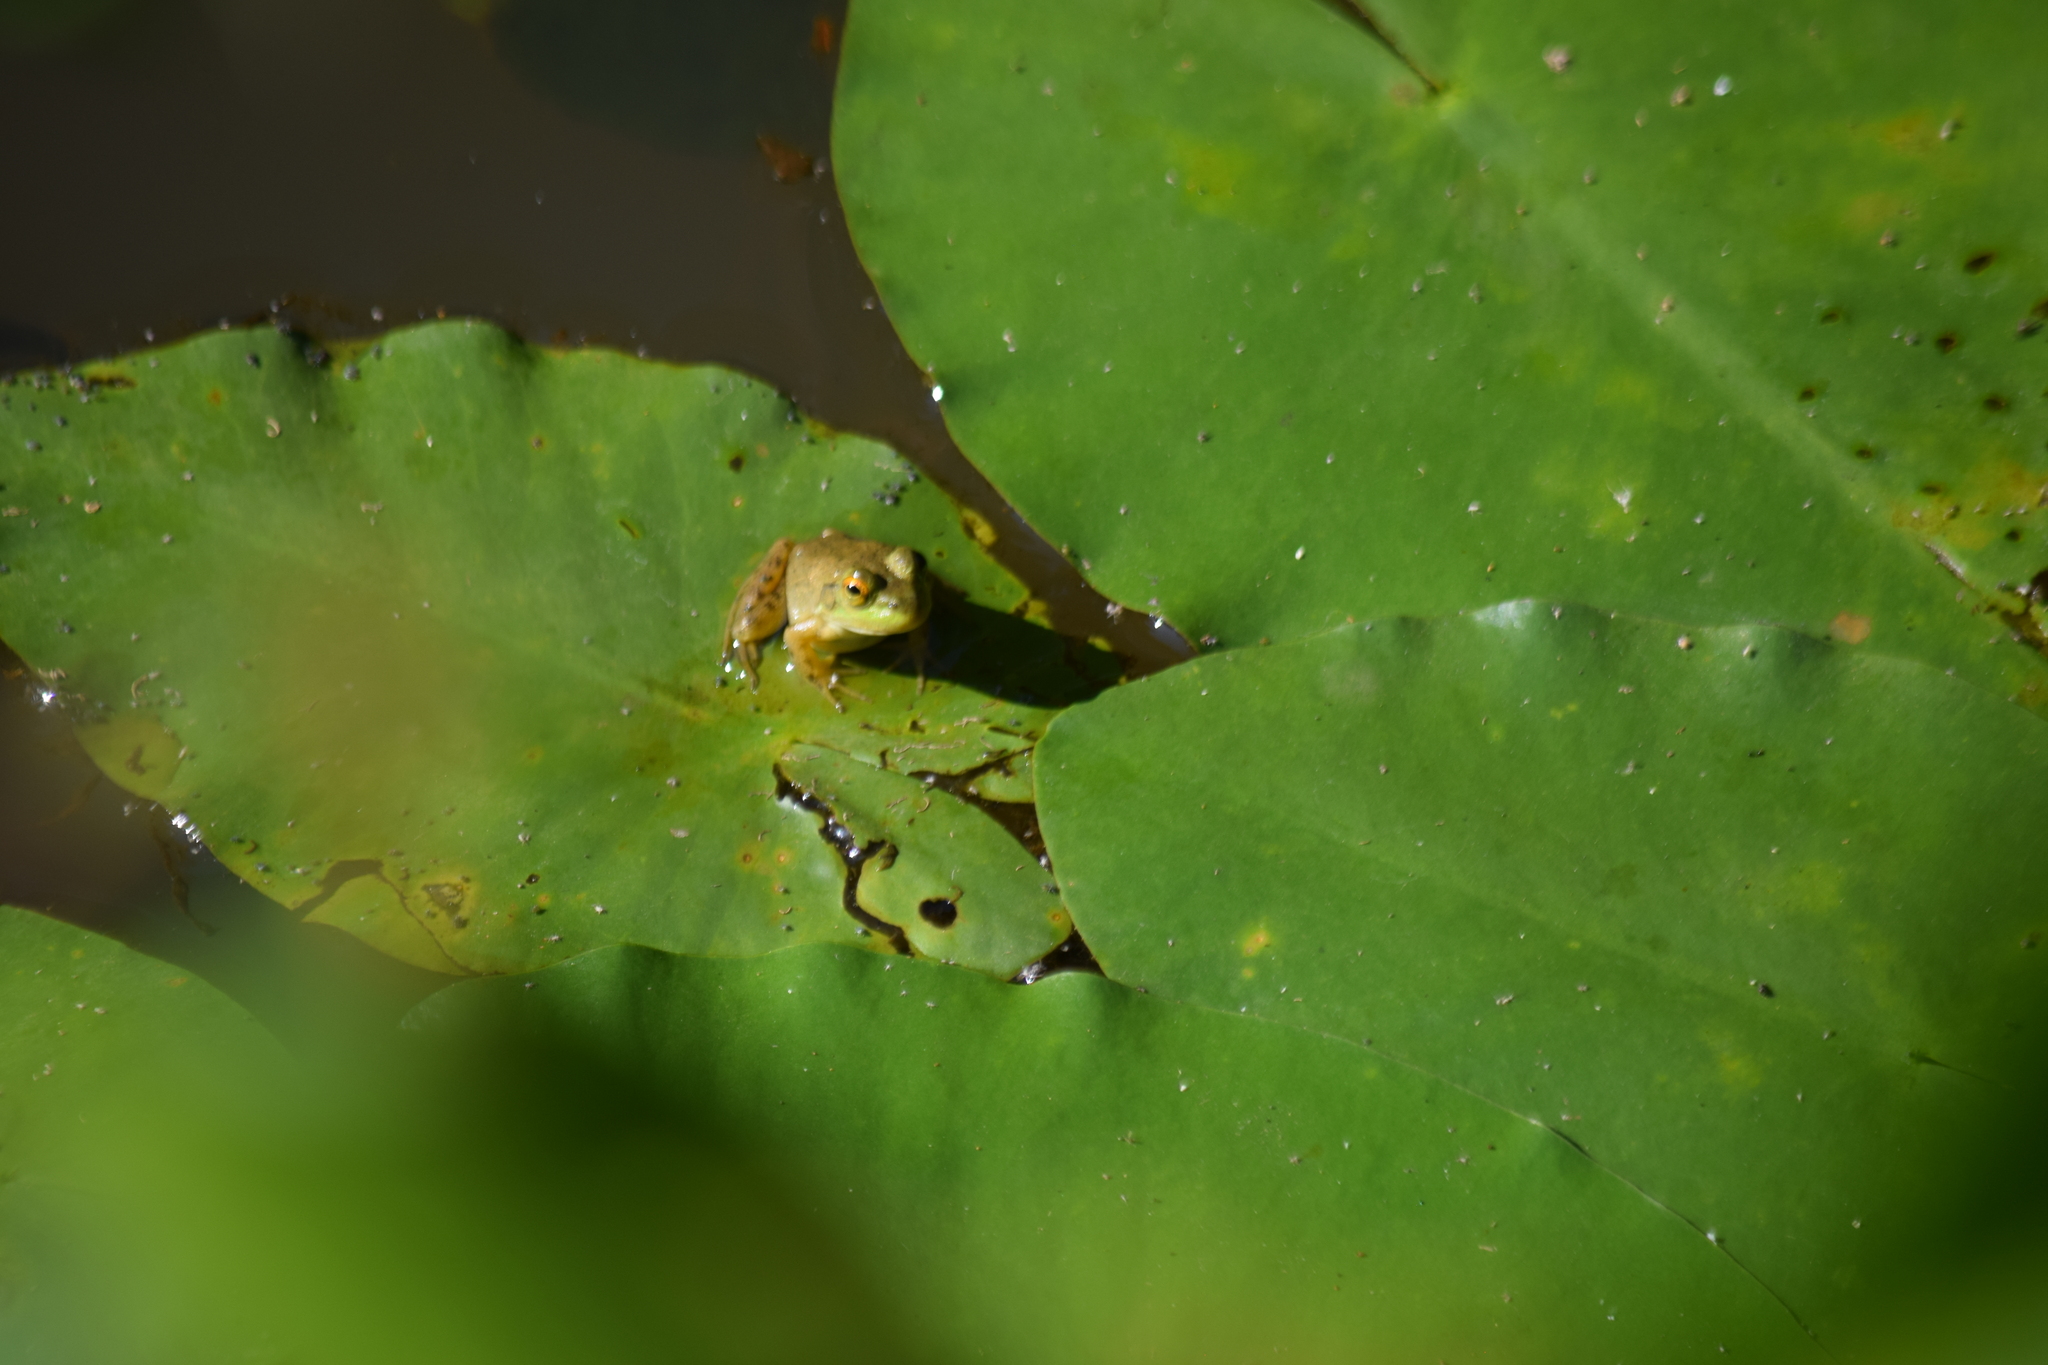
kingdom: Animalia
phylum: Chordata
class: Amphibia
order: Anura
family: Ranidae
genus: Lithobates
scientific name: Lithobates catesbeianus
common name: American bullfrog
